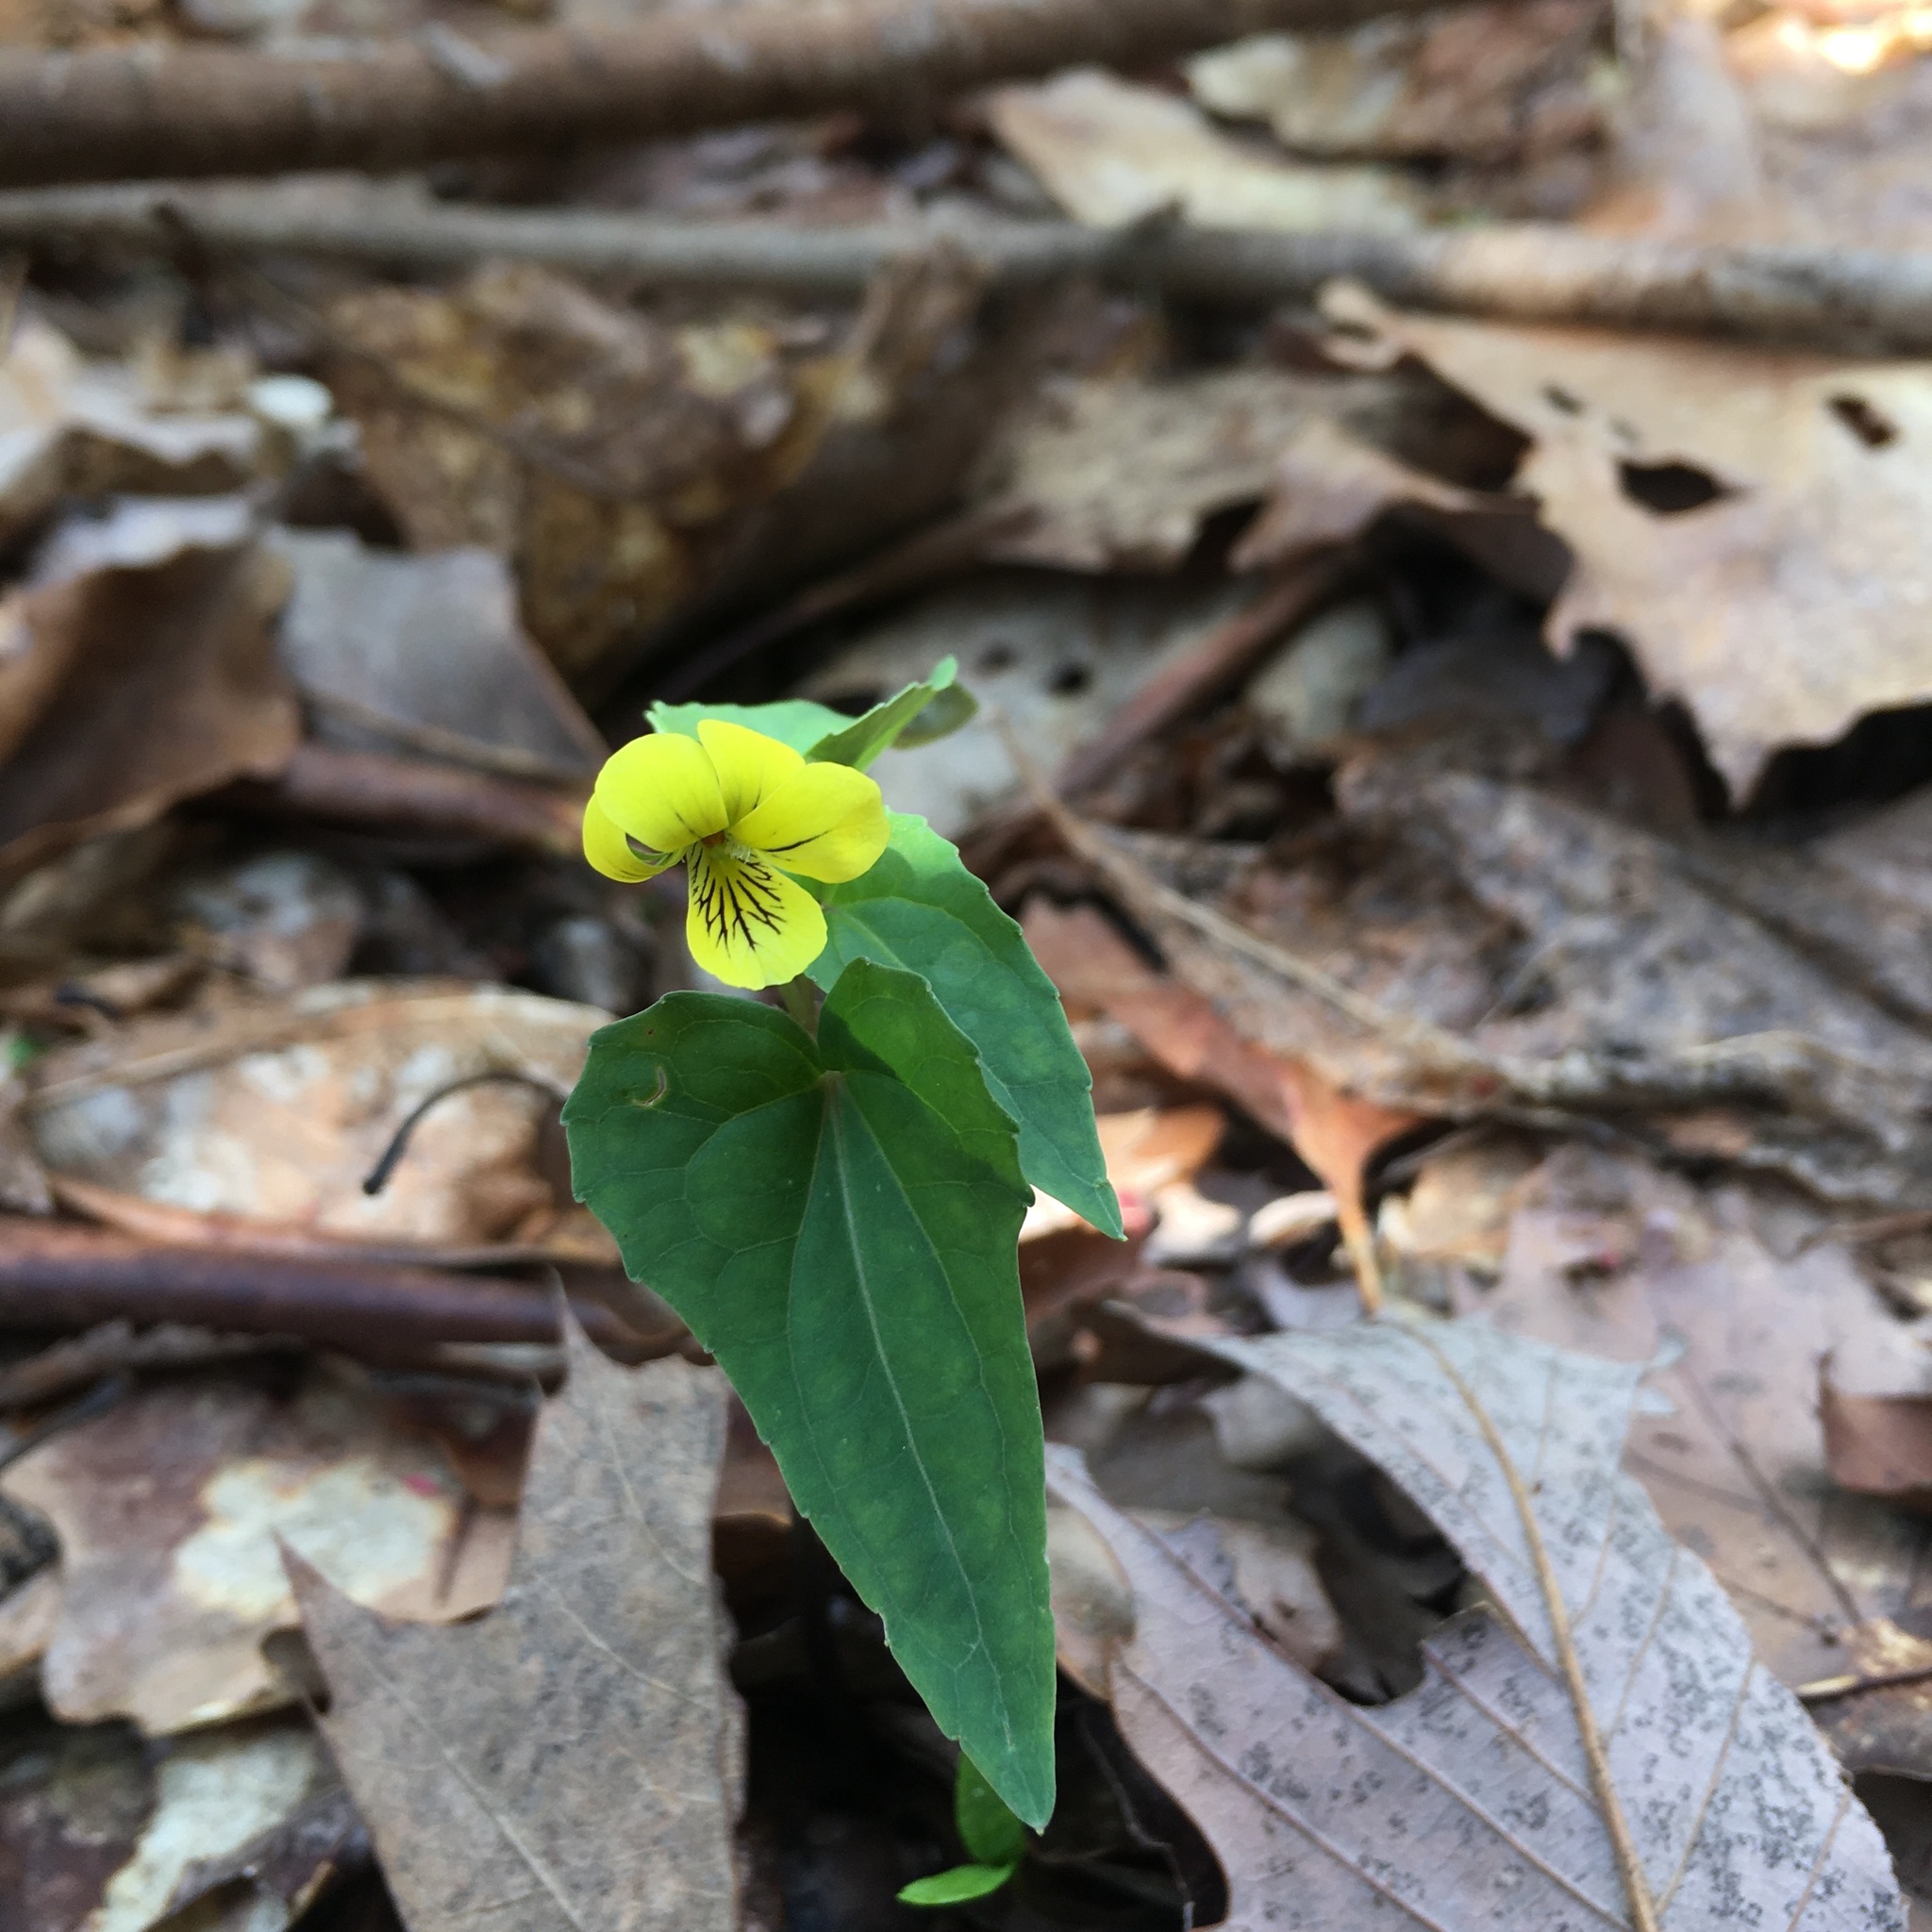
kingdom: Plantae
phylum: Tracheophyta
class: Magnoliopsida
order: Malpighiales
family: Violaceae
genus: Viola
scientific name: Viola hastata
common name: Spear-leaf violet
